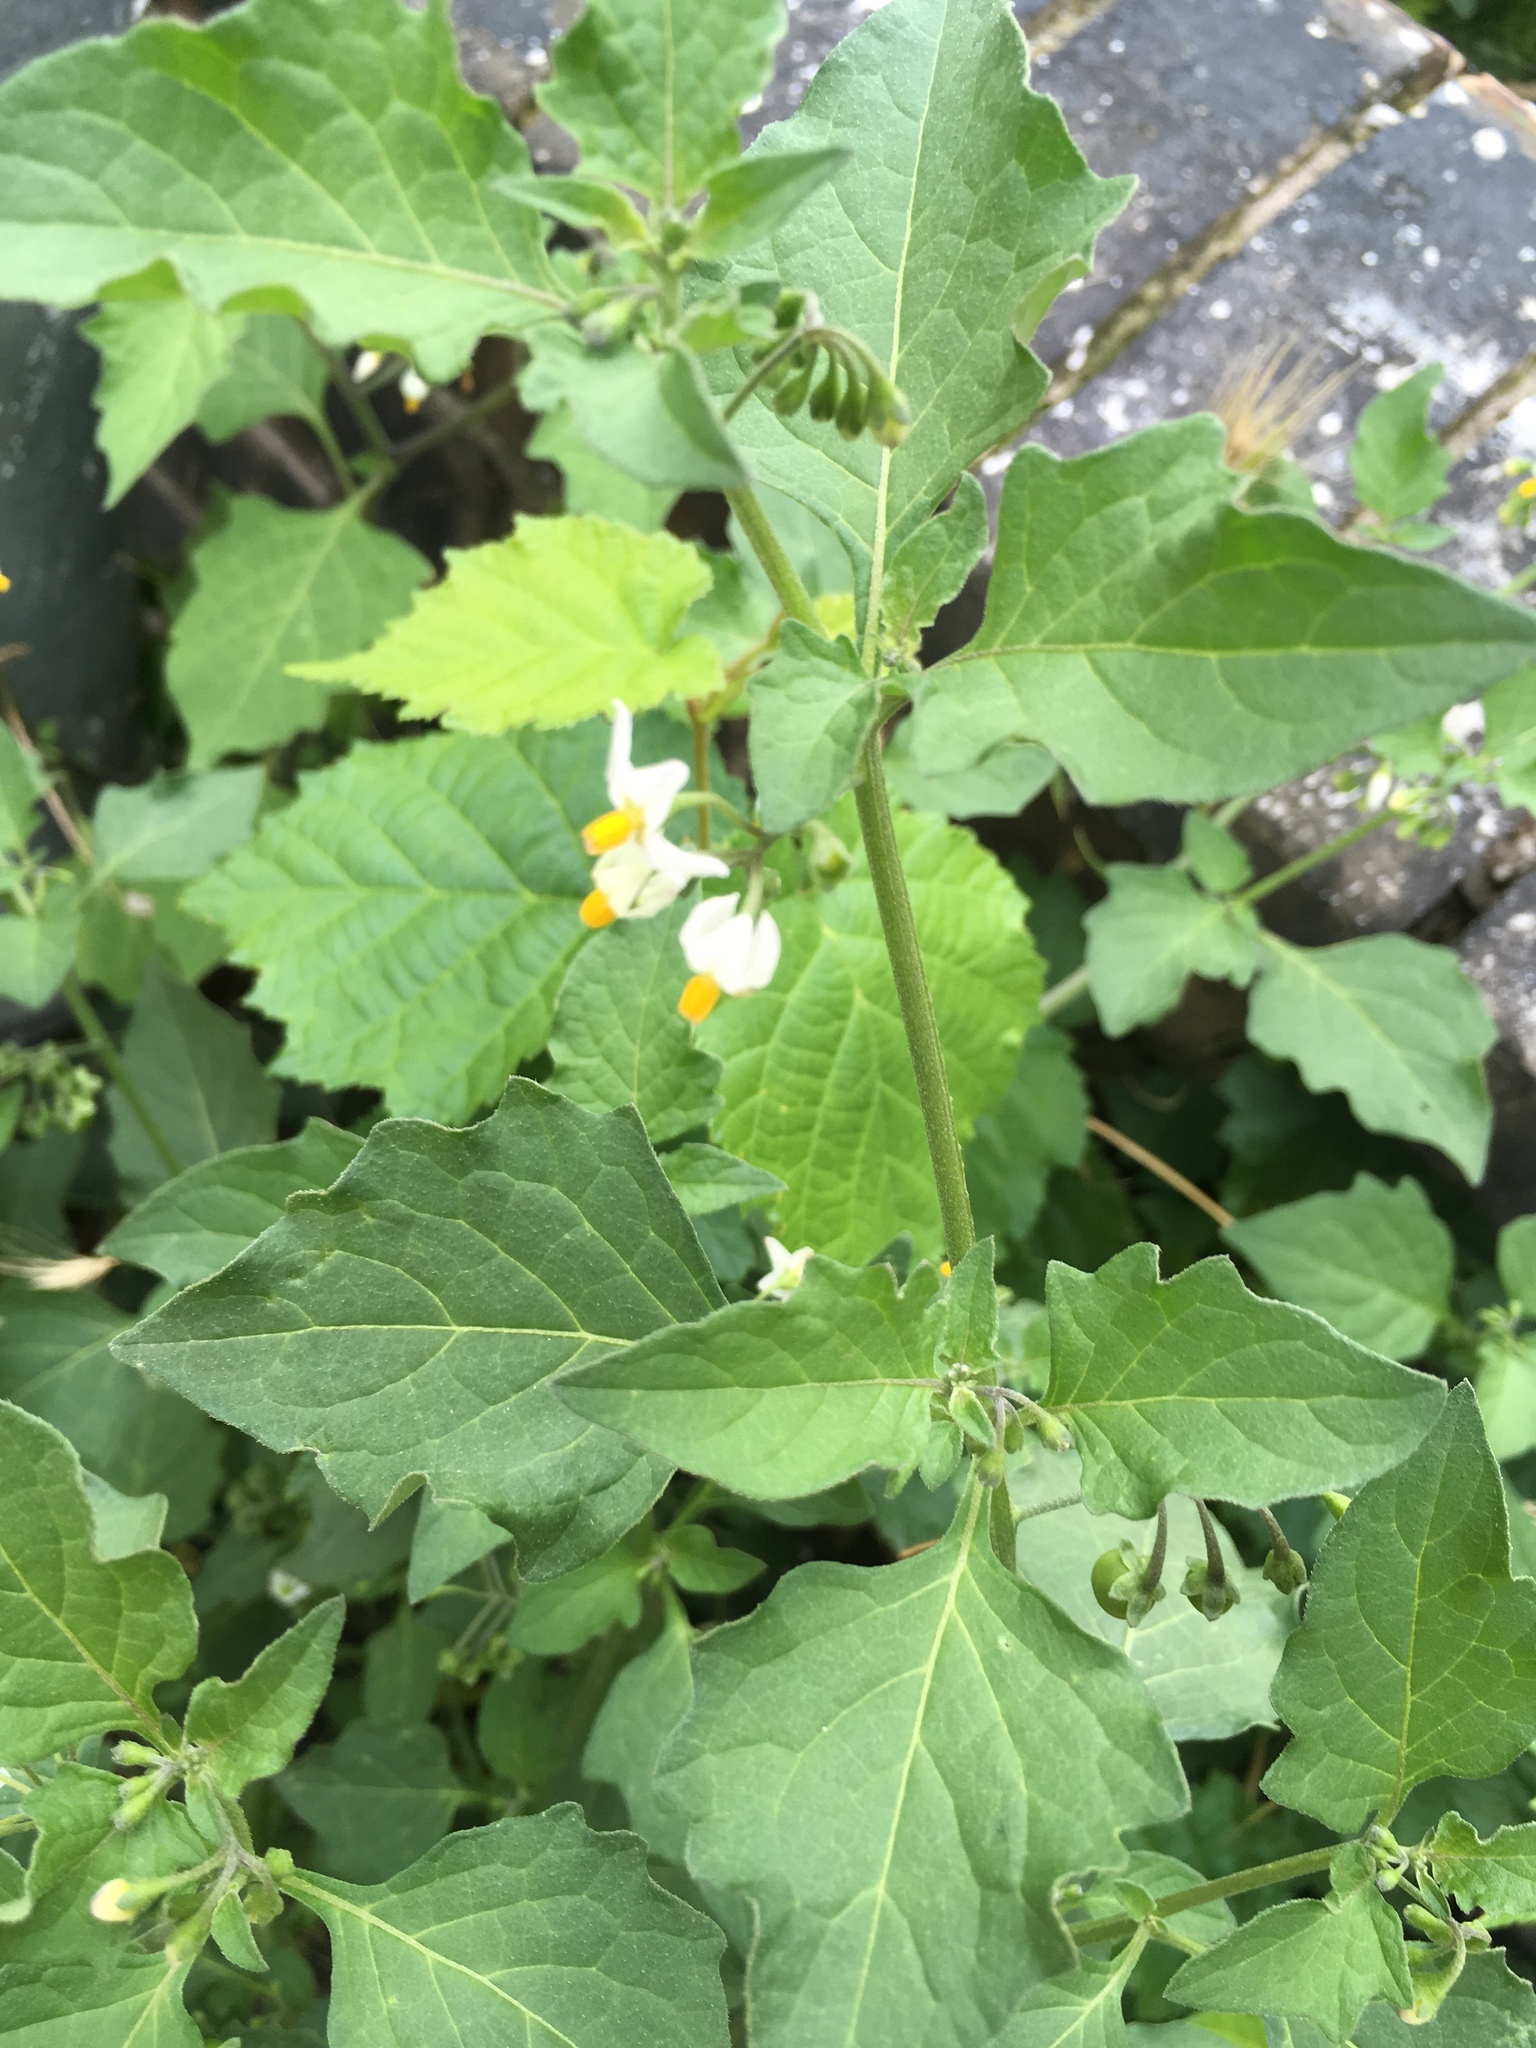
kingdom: Plantae
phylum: Tracheophyta
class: Magnoliopsida
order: Solanales
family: Solanaceae
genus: Solanum
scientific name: Solanum nigrum
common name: Black nightshade
